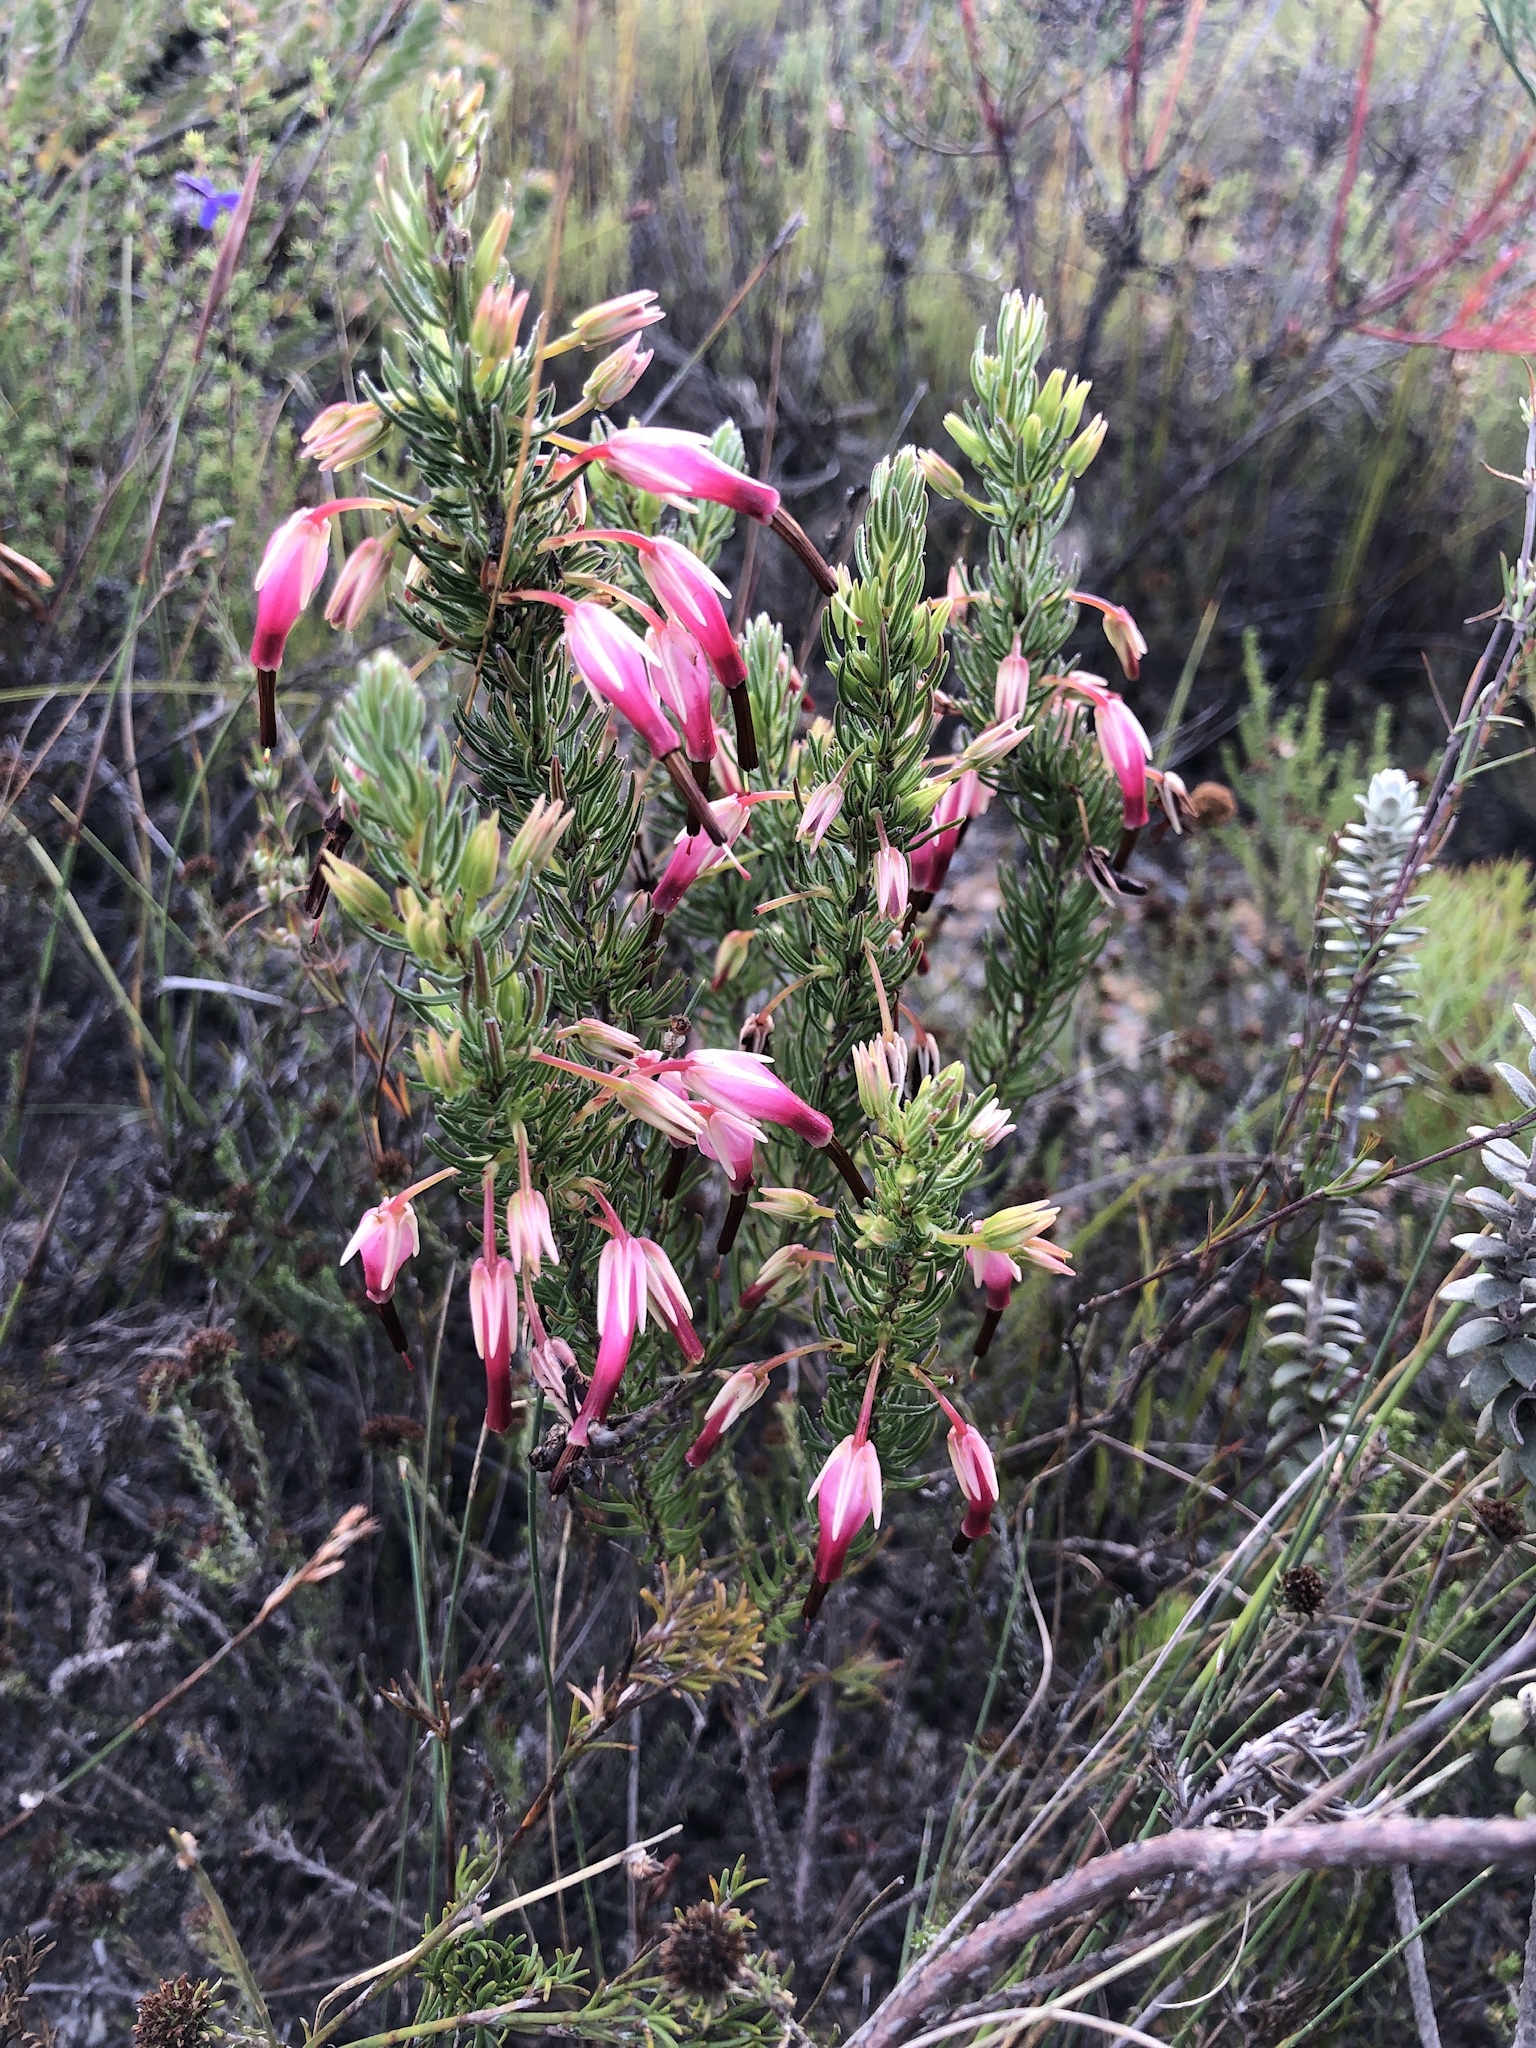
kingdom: Plantae
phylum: Tracheophyta
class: Magnoliopsida
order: Ericales
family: Ericaceae
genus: Erica
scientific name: Erica plukenetii
